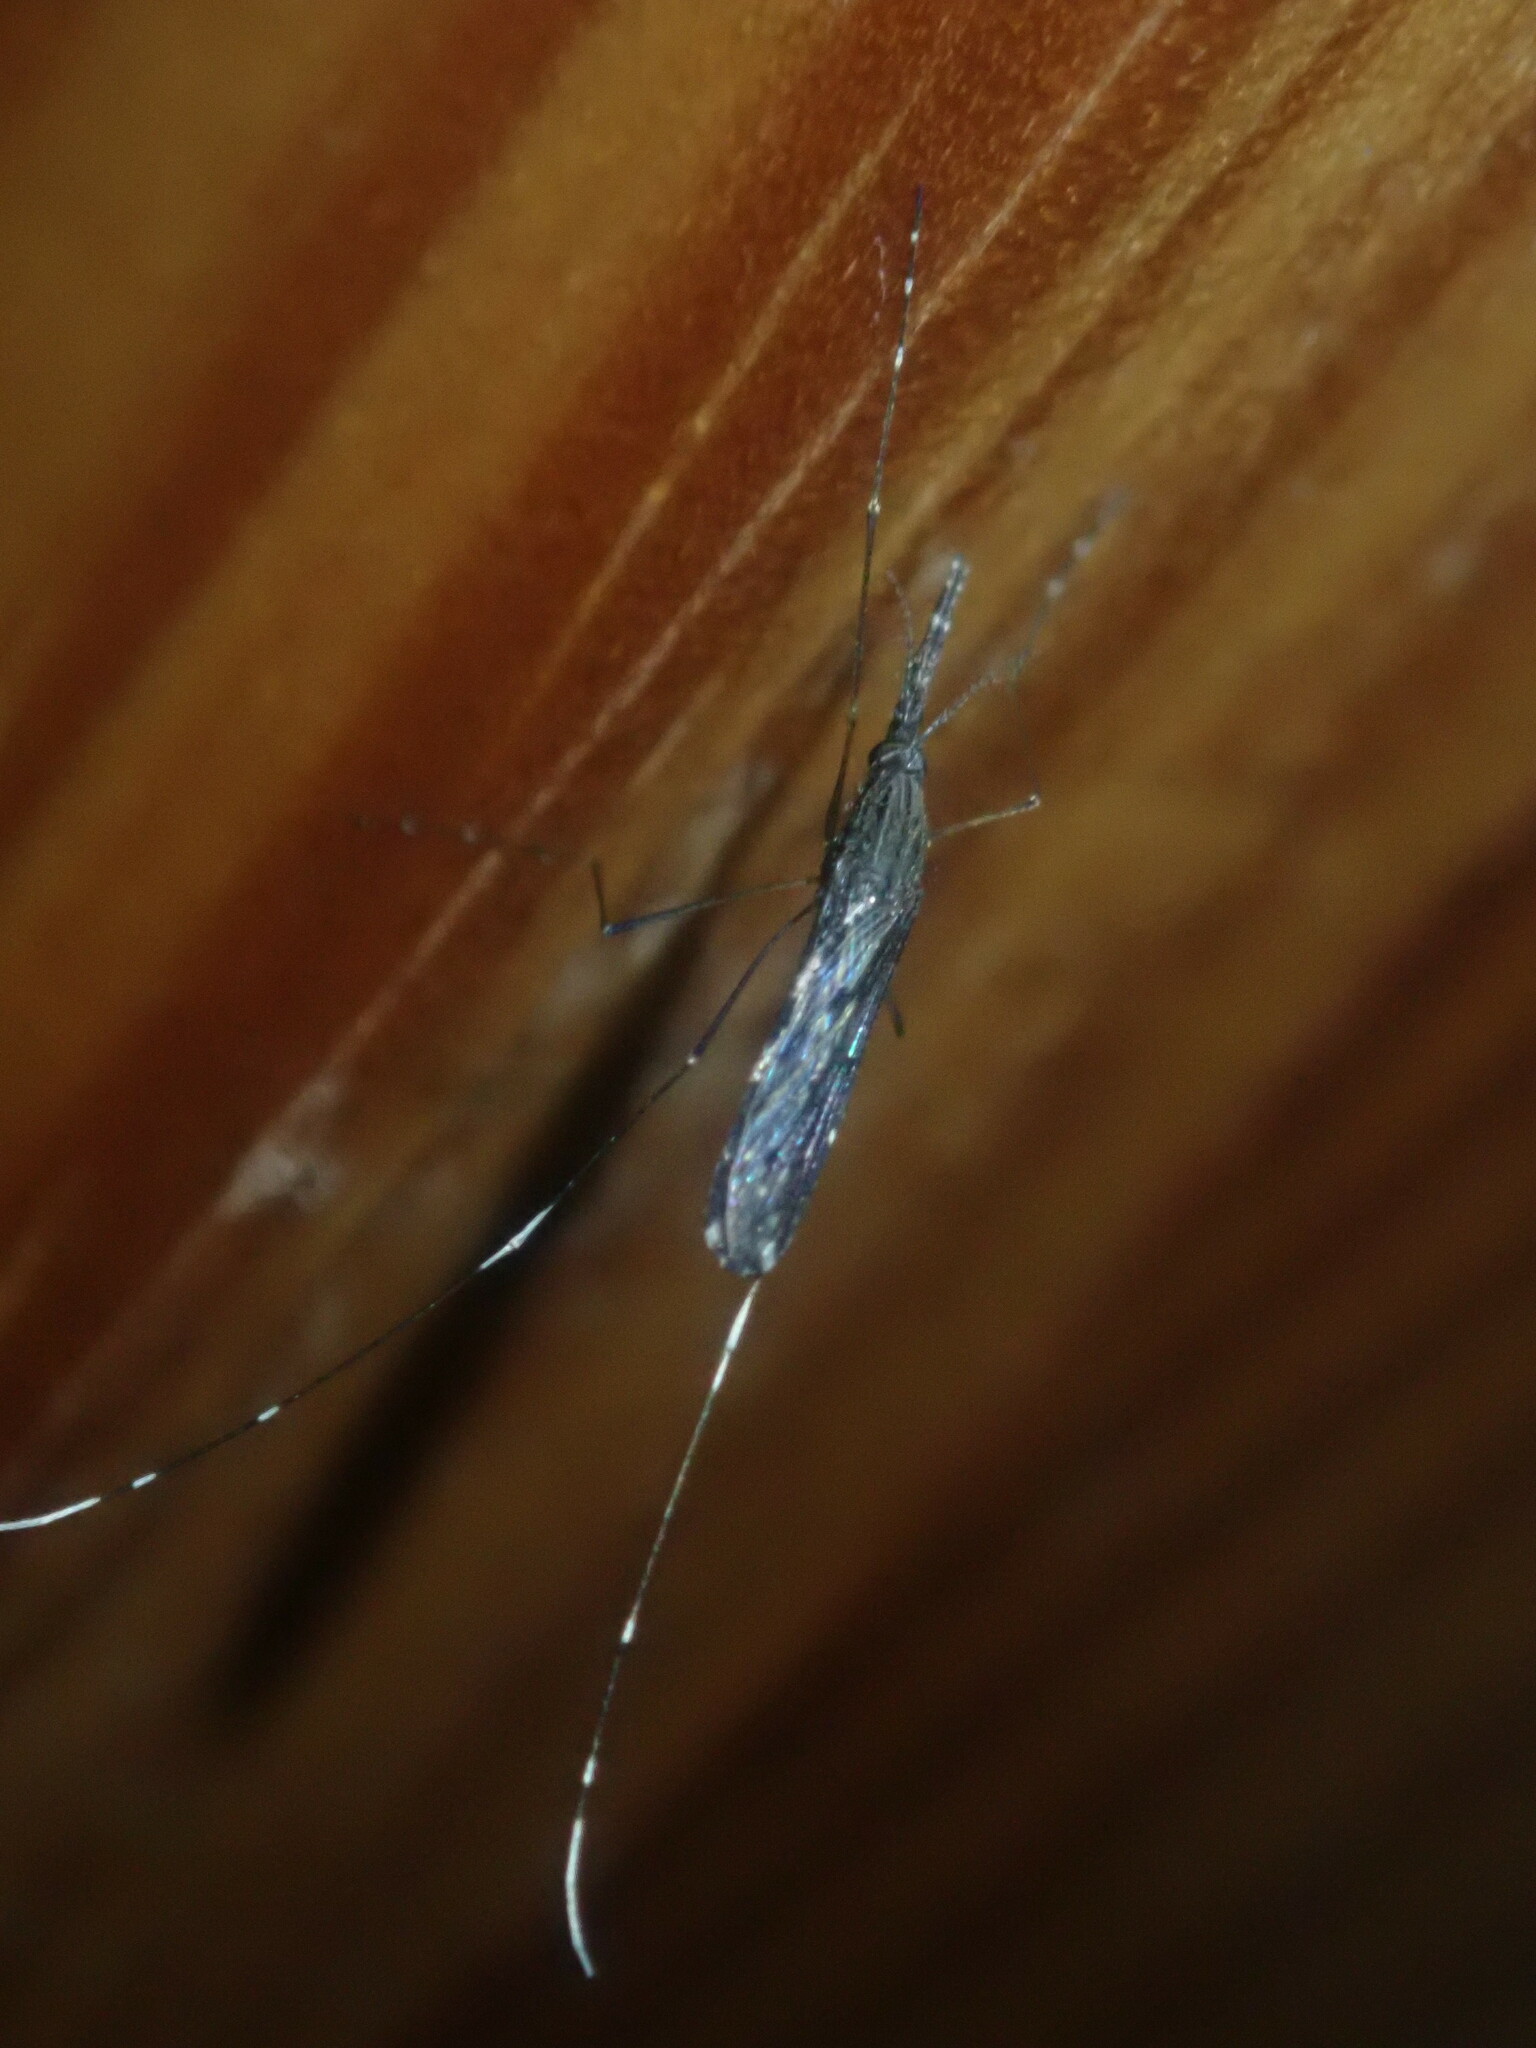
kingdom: Animalia
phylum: Arthropoda
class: Insecta
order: Diptera
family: Culicidae
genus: Anopheles
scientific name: Anopheles coustani
